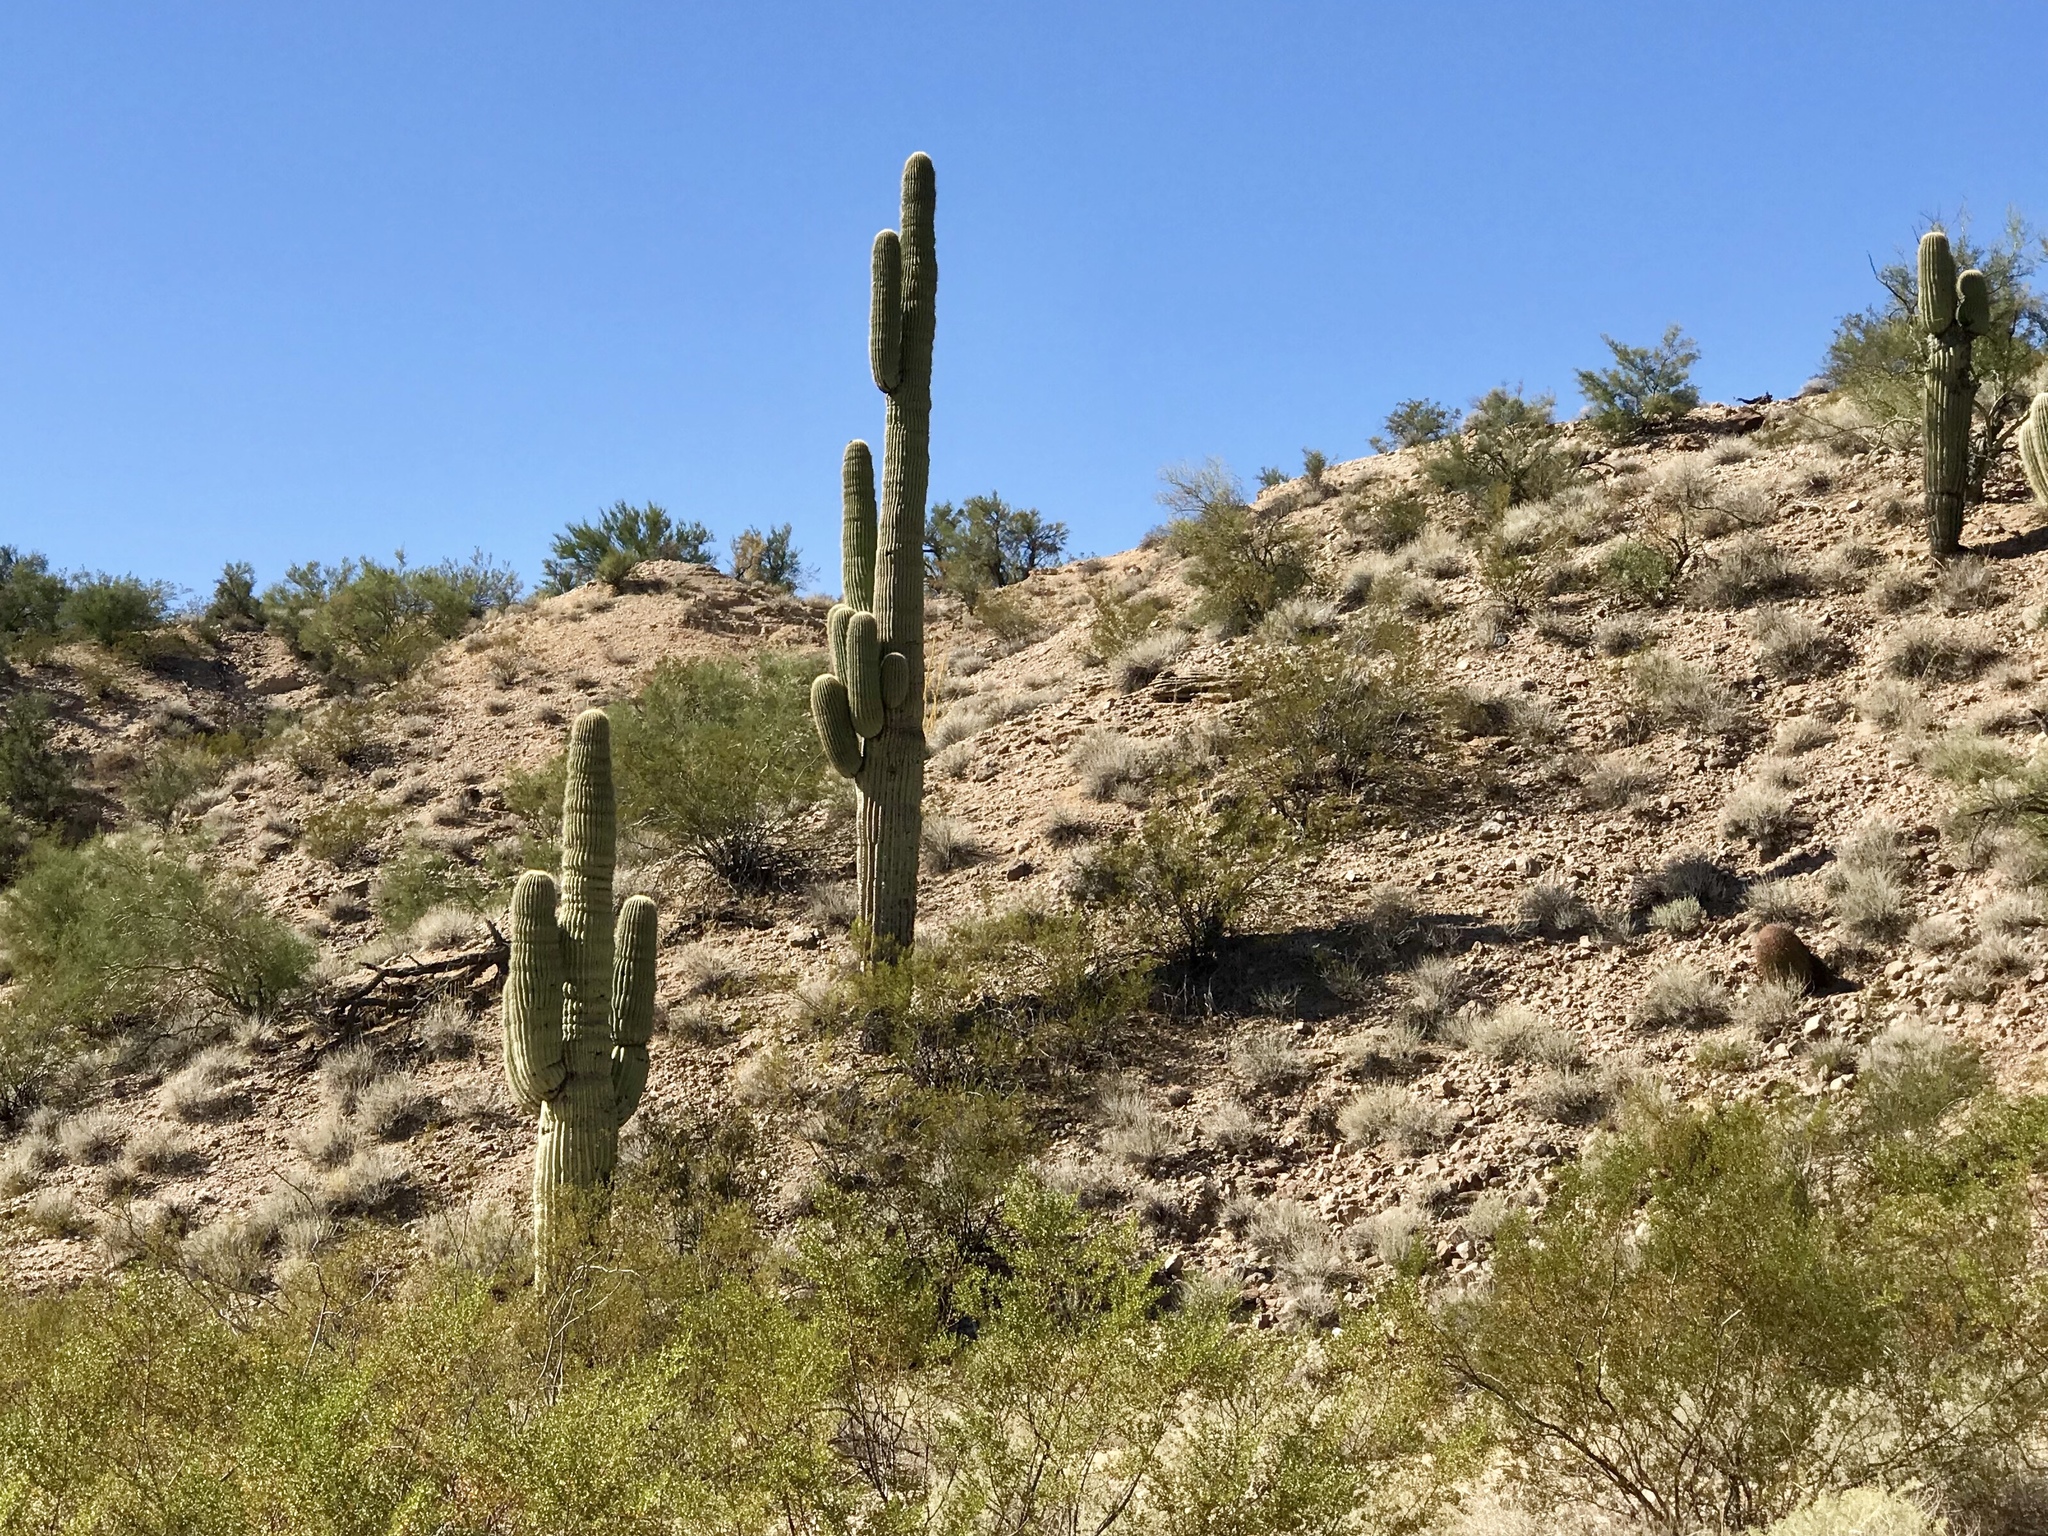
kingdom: Plantae
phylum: Tracheophyta
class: Magnoliopsida
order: Caryophyllales
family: Cactaceae
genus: Carnegiea
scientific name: Carnegiea gigantea
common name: Saguaro
